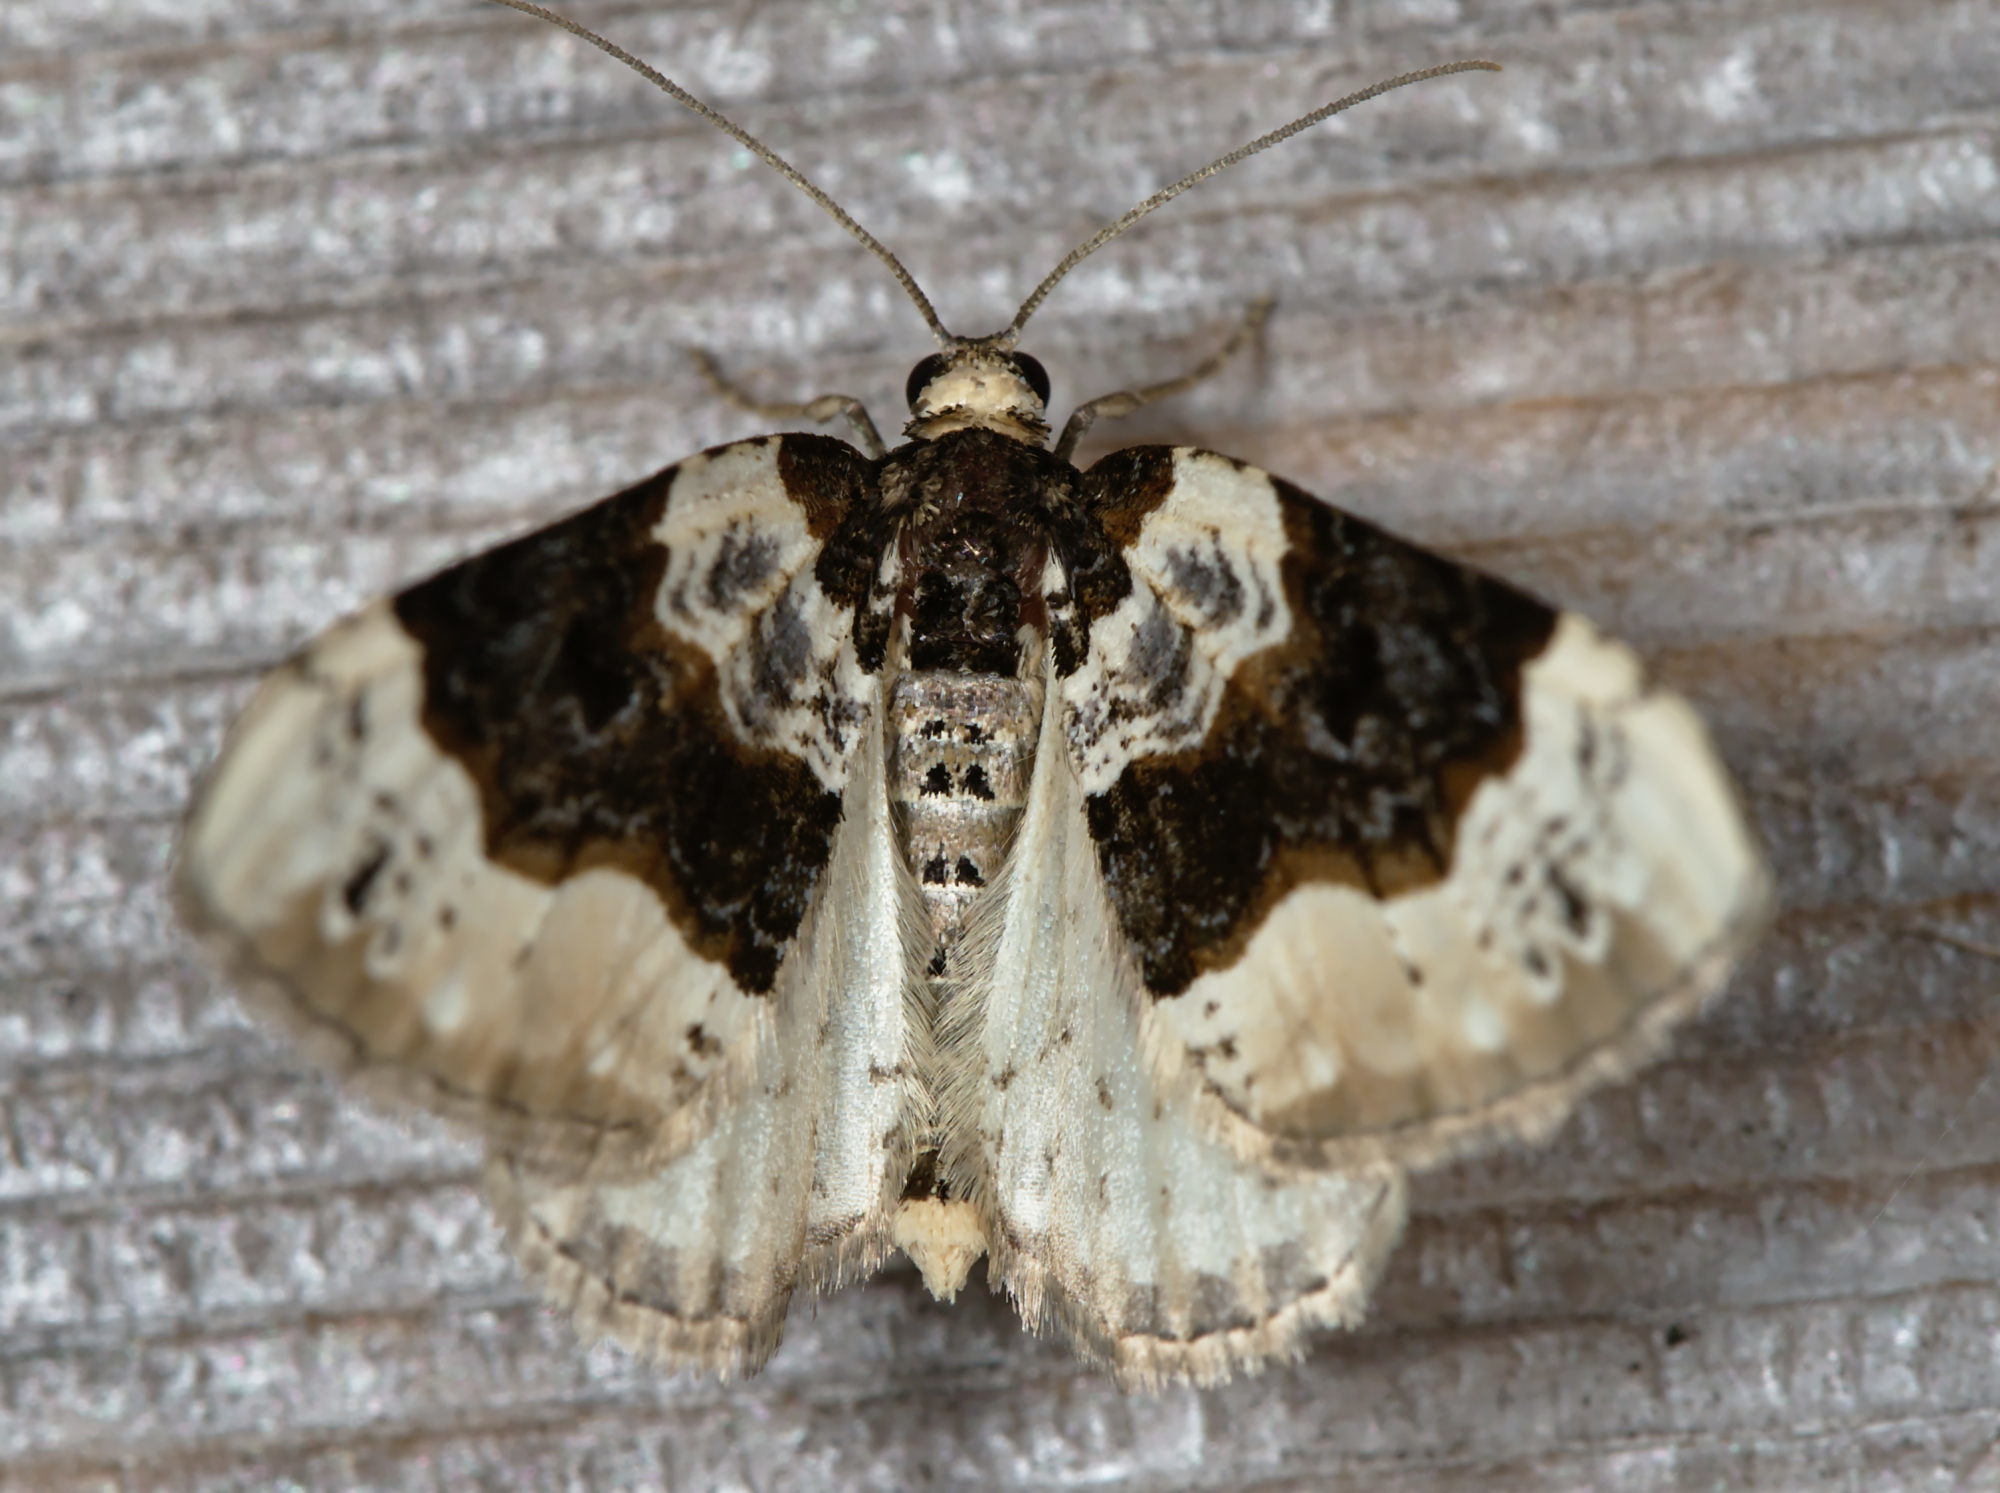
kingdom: Animalia
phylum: Arthropoda
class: Insecta
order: Lepidoptera
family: Geometridae
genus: Cosmorhoe
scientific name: Cosmorhoe ocellata
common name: Purple bar
